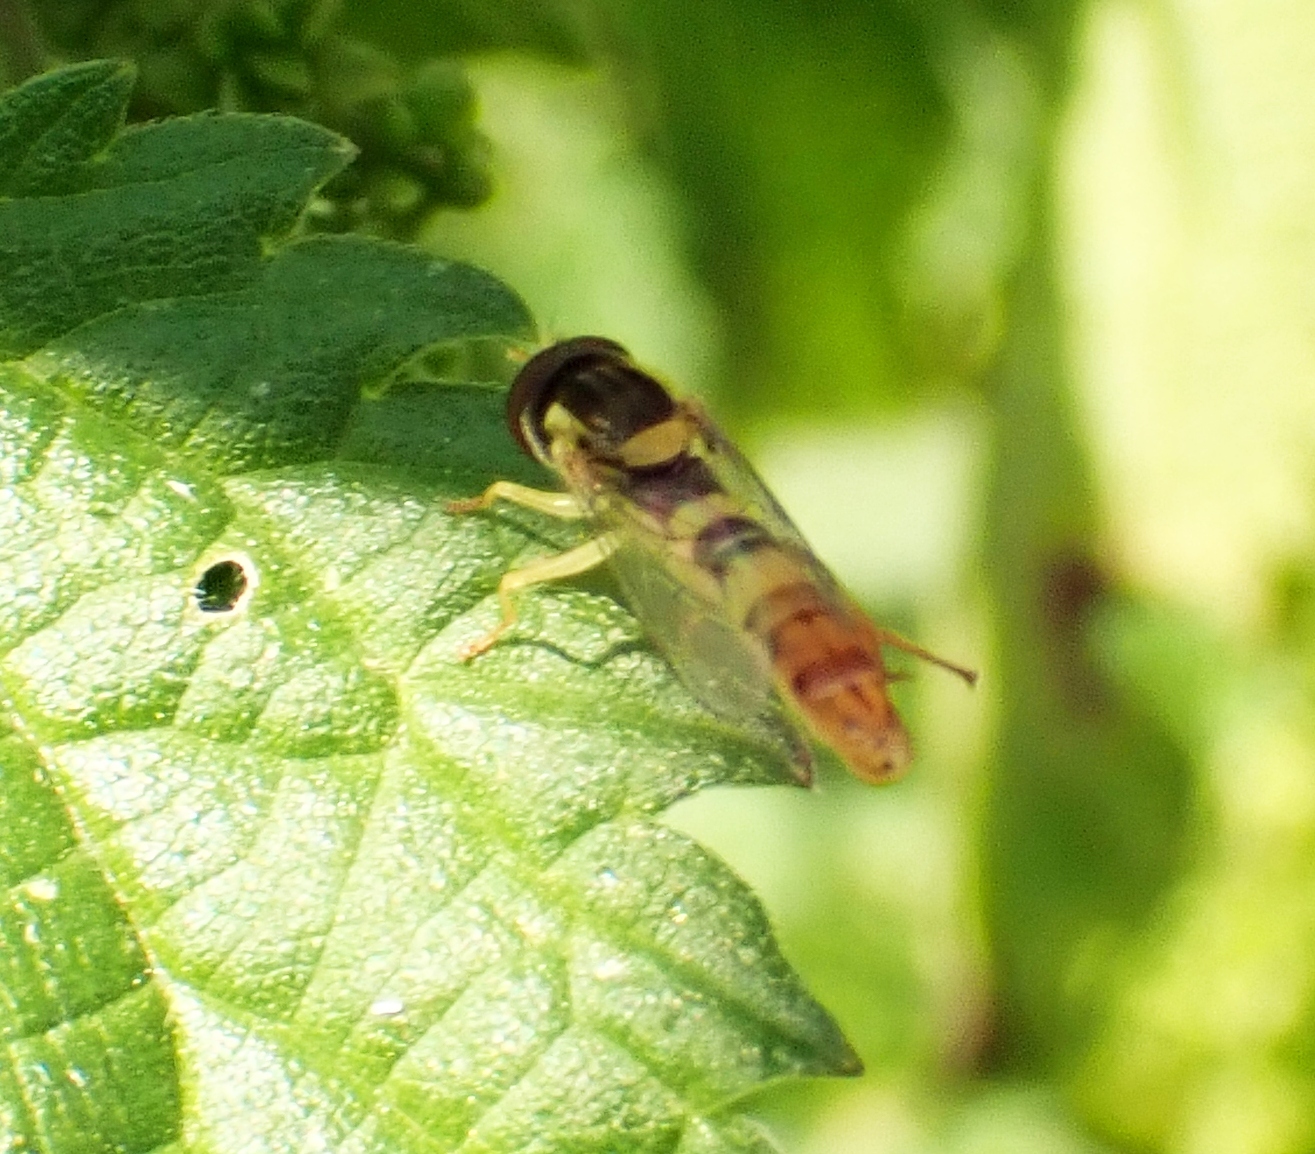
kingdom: Animalia
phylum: Arthropoda
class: Insecta
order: Diptera
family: Syrphidae
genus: Sphaerophoria
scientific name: Sphaerophoria scripta
